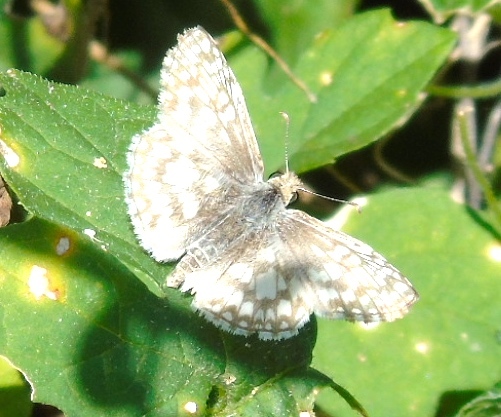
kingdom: Animalia
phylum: Arthropoda
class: Insecta
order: Lepidoptera
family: Hesperiidae
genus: Burnsius
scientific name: Burnsius
